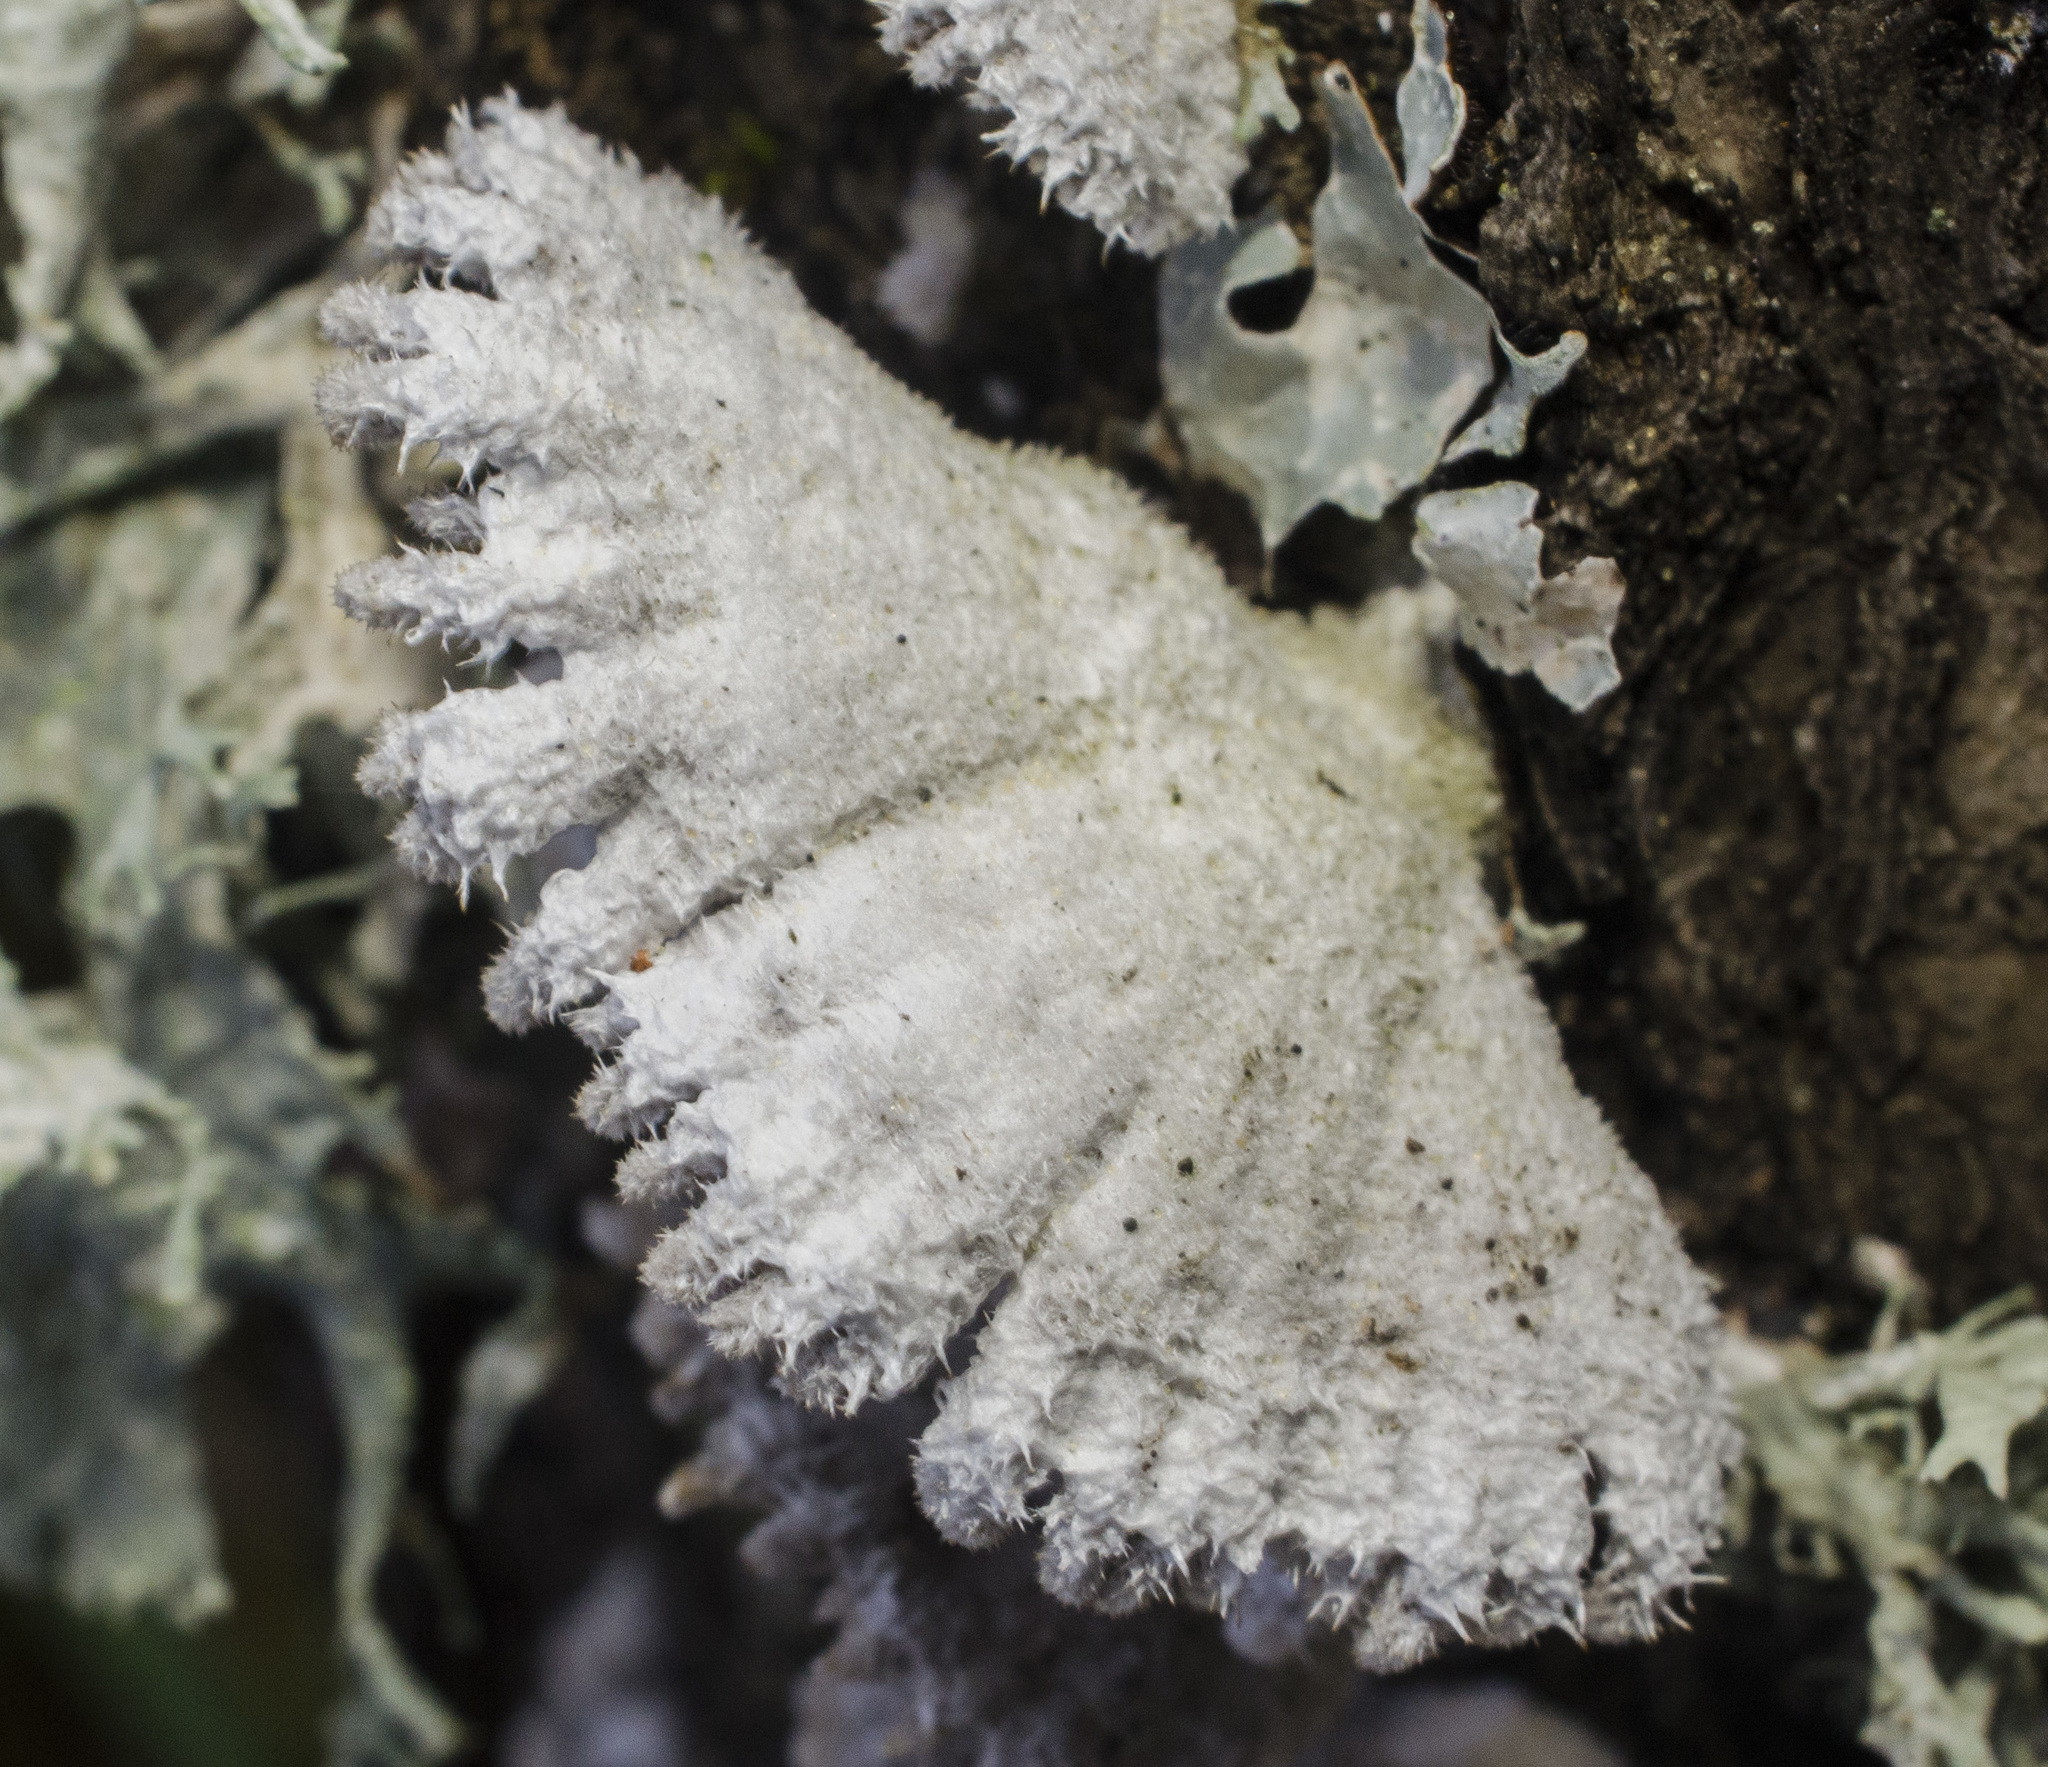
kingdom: Fungi
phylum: Basidiomycota
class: Agaricomycetes
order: Agaricales
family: Schizophyllaceae
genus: Schizophyllum
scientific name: Schizophyllum commune
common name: Common porecrust
